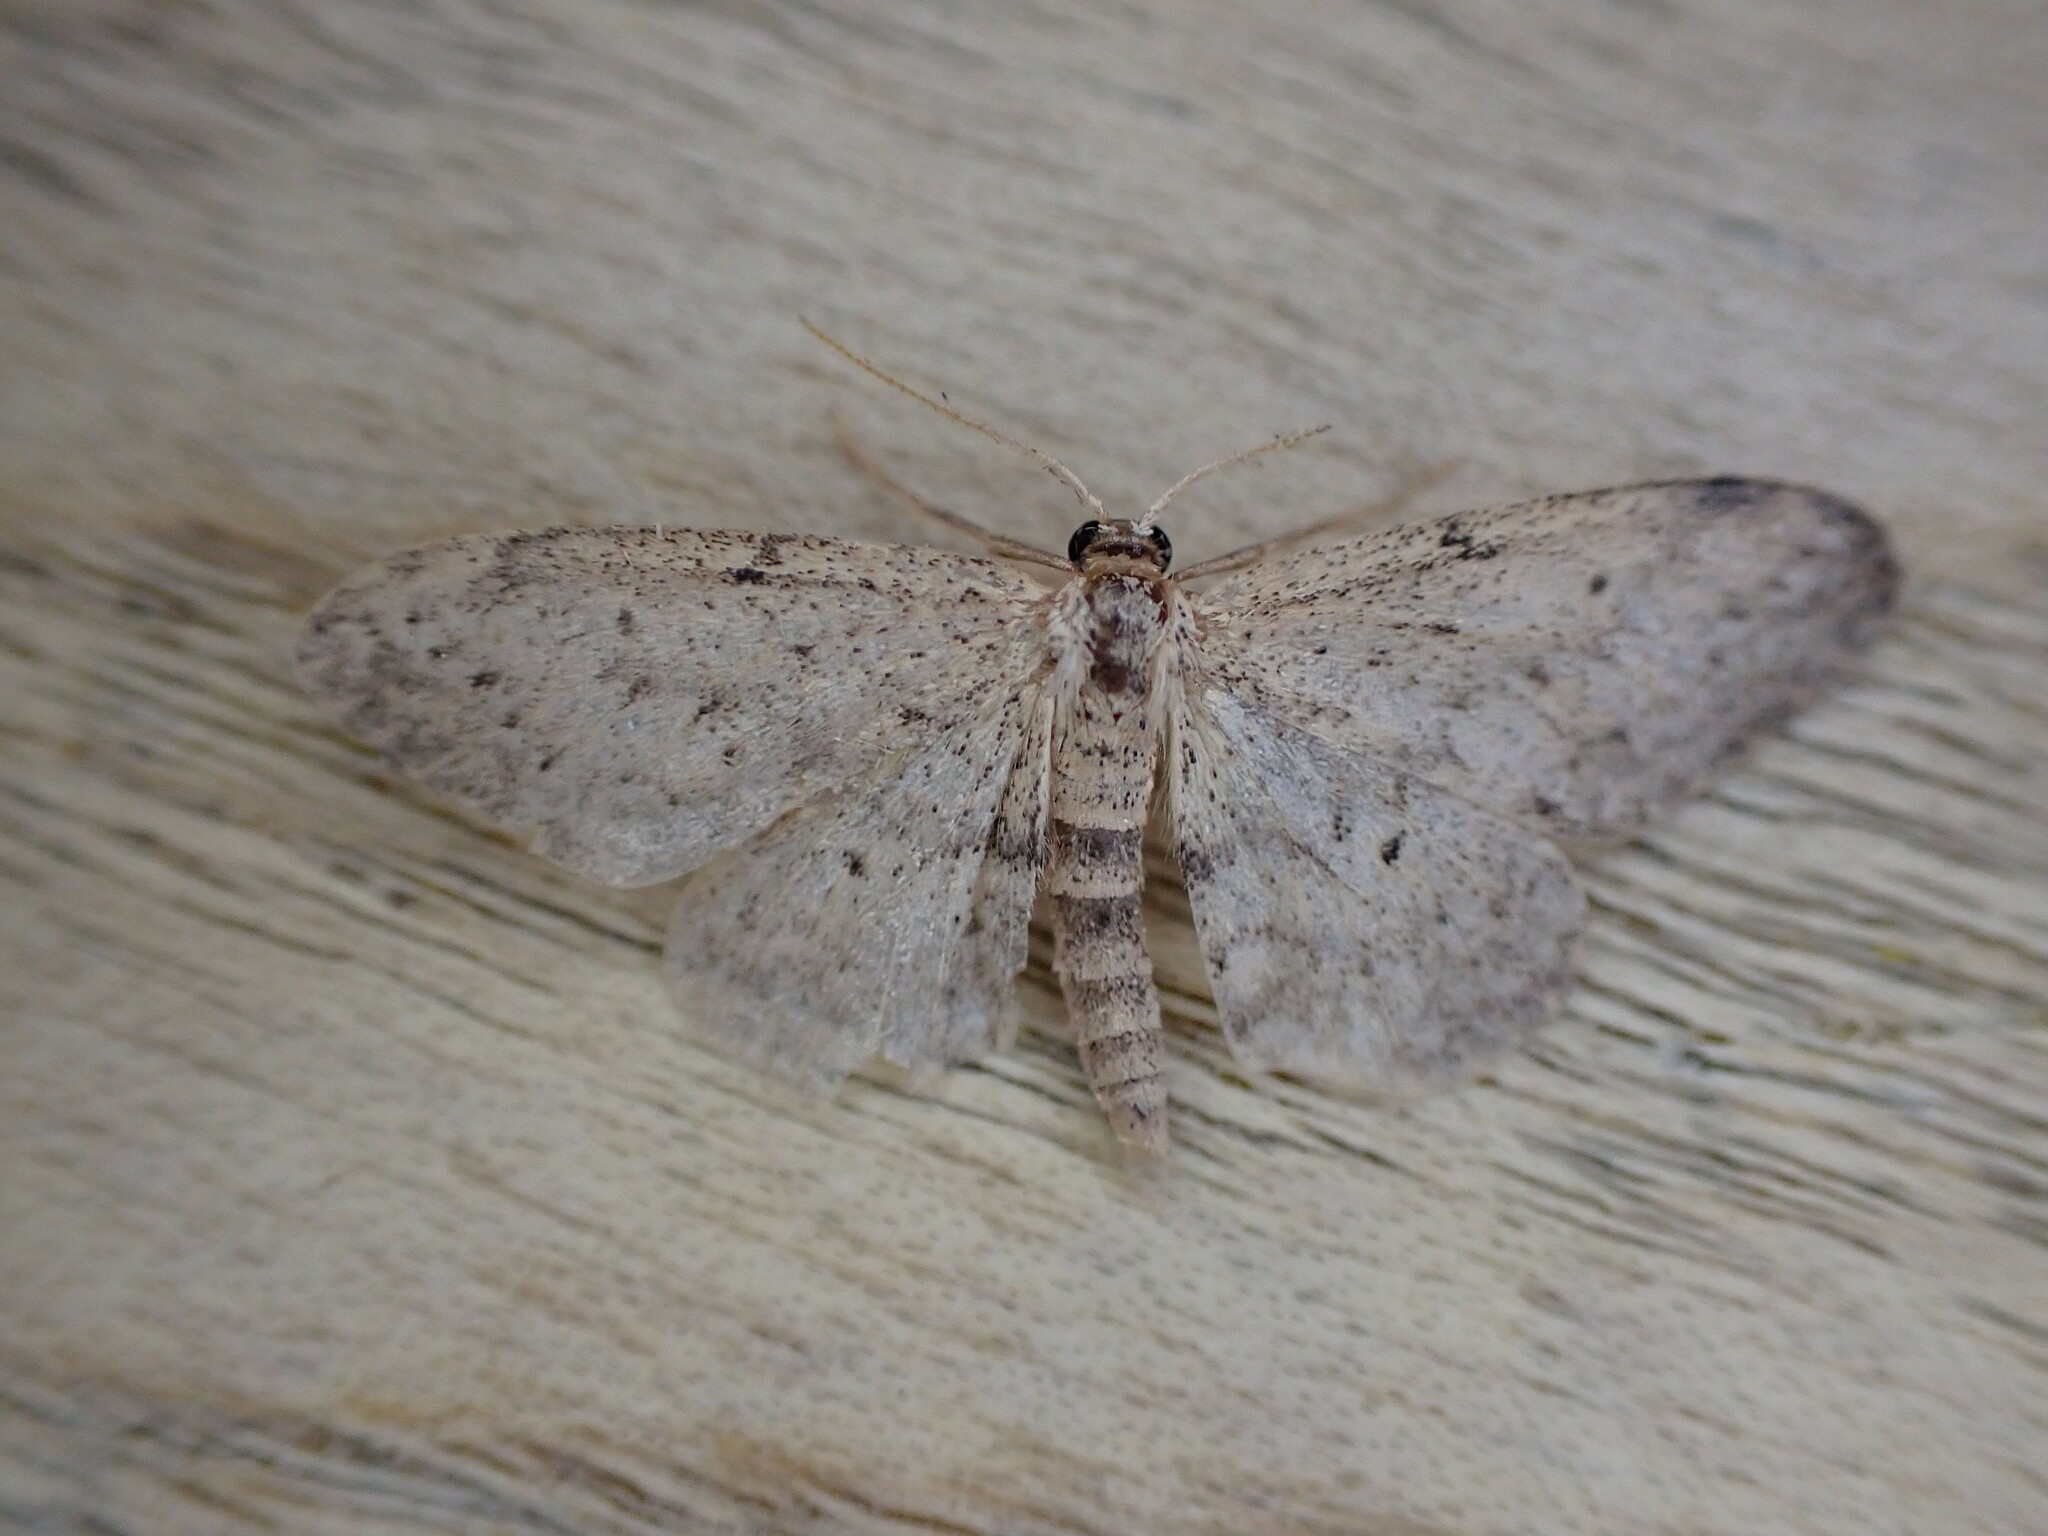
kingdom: Animalia
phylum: Arthropoda
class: Insecta
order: Lepidoptera
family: Geometridae
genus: Idaea
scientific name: Idaea seriata
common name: Small dusty wave
